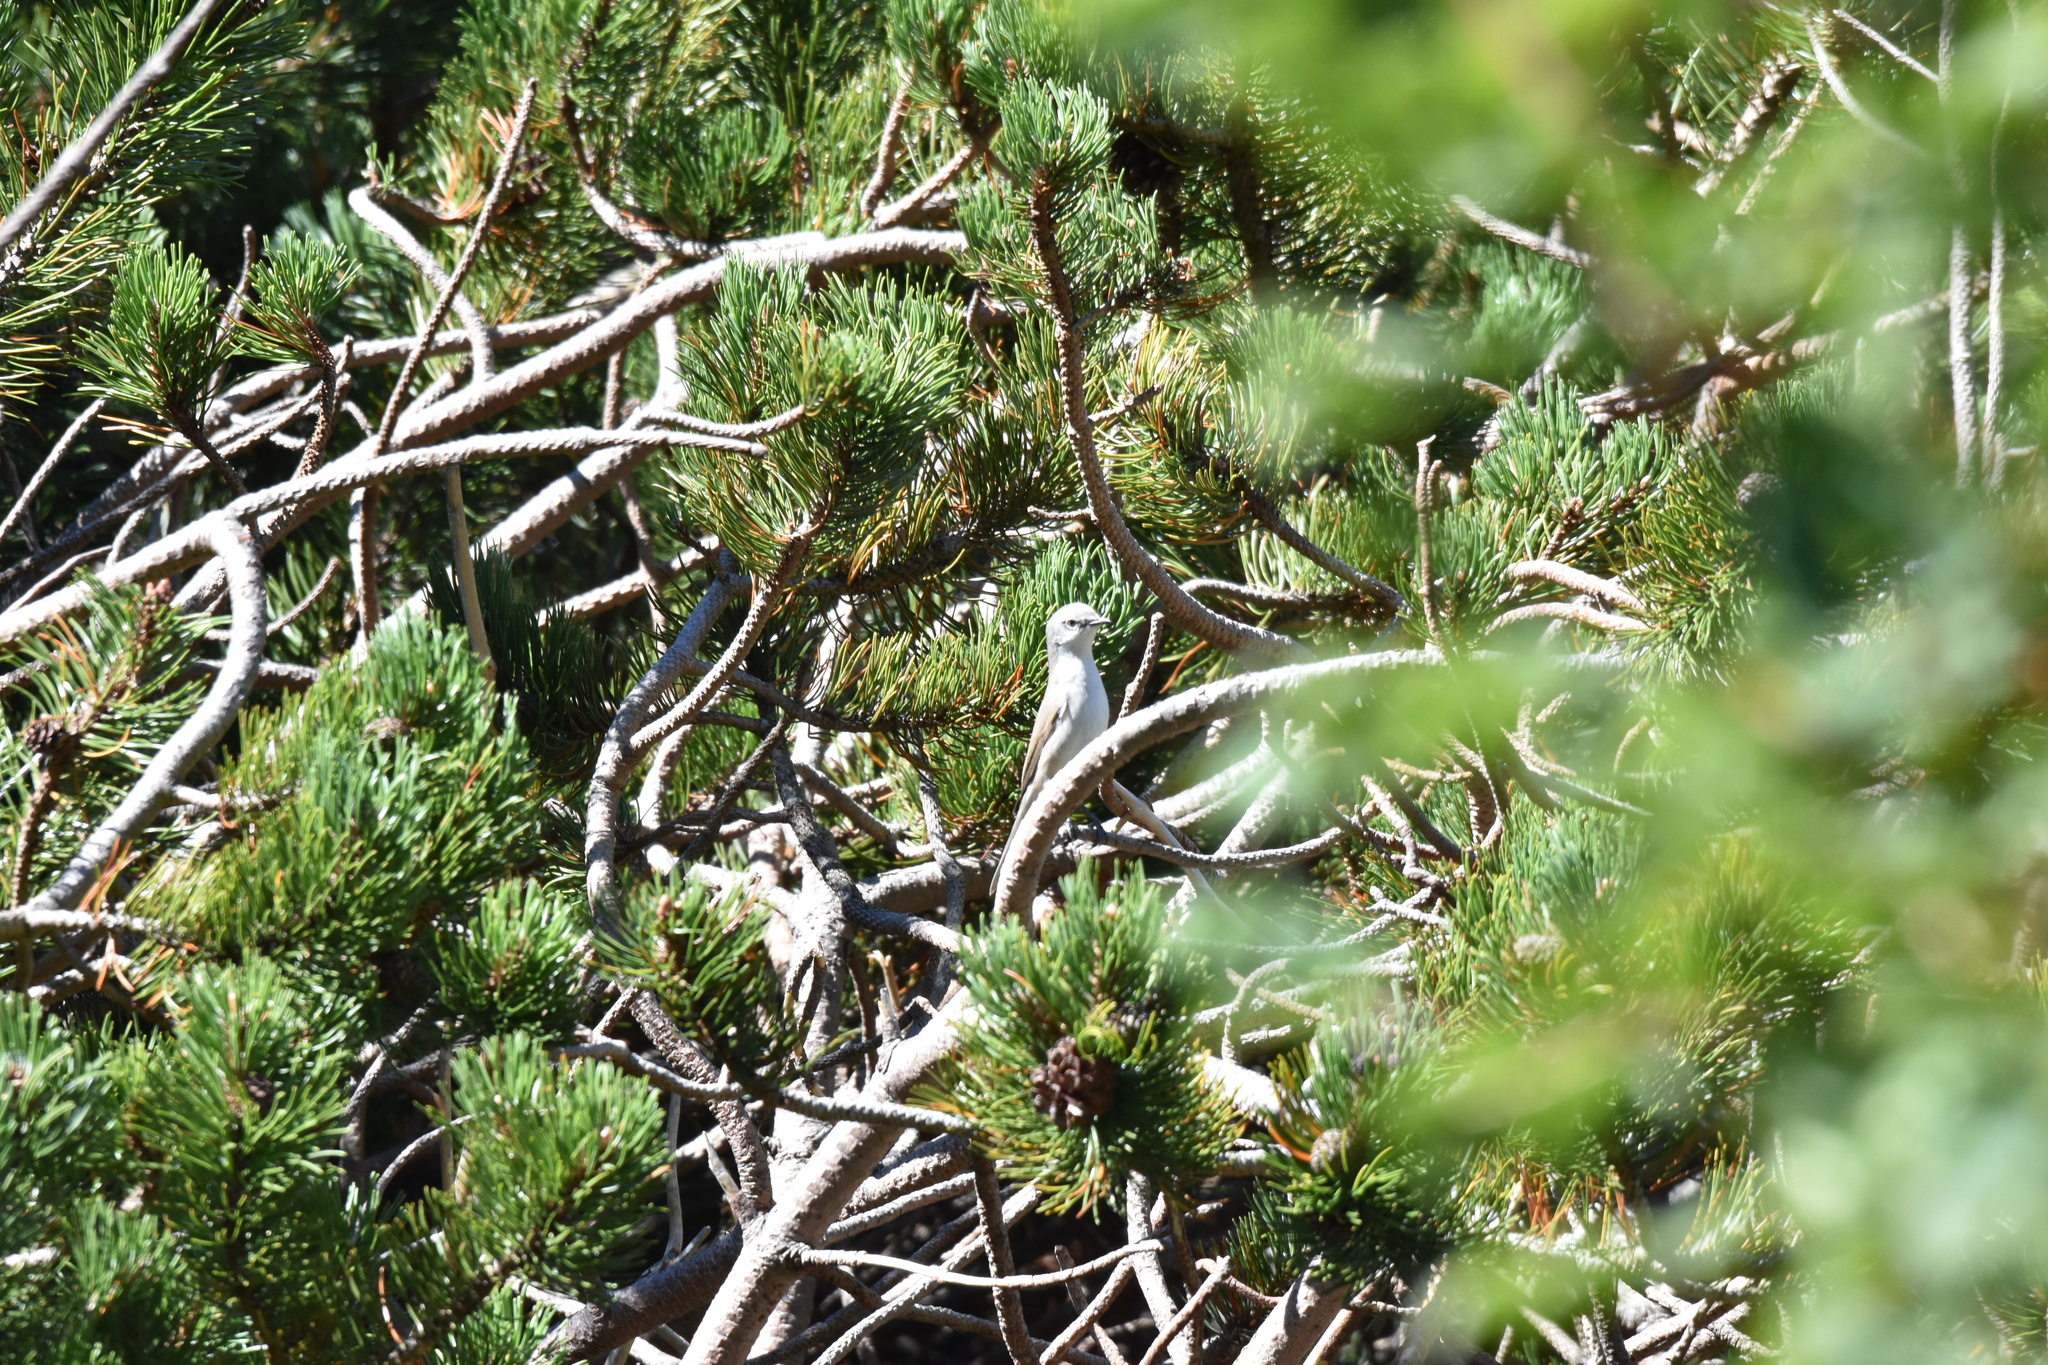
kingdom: Animalia
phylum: Chordata
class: Aves
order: Passeriformes
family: Sylviidae
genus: Sylvia
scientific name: Sylvia curruca
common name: Lesser whitethroat
